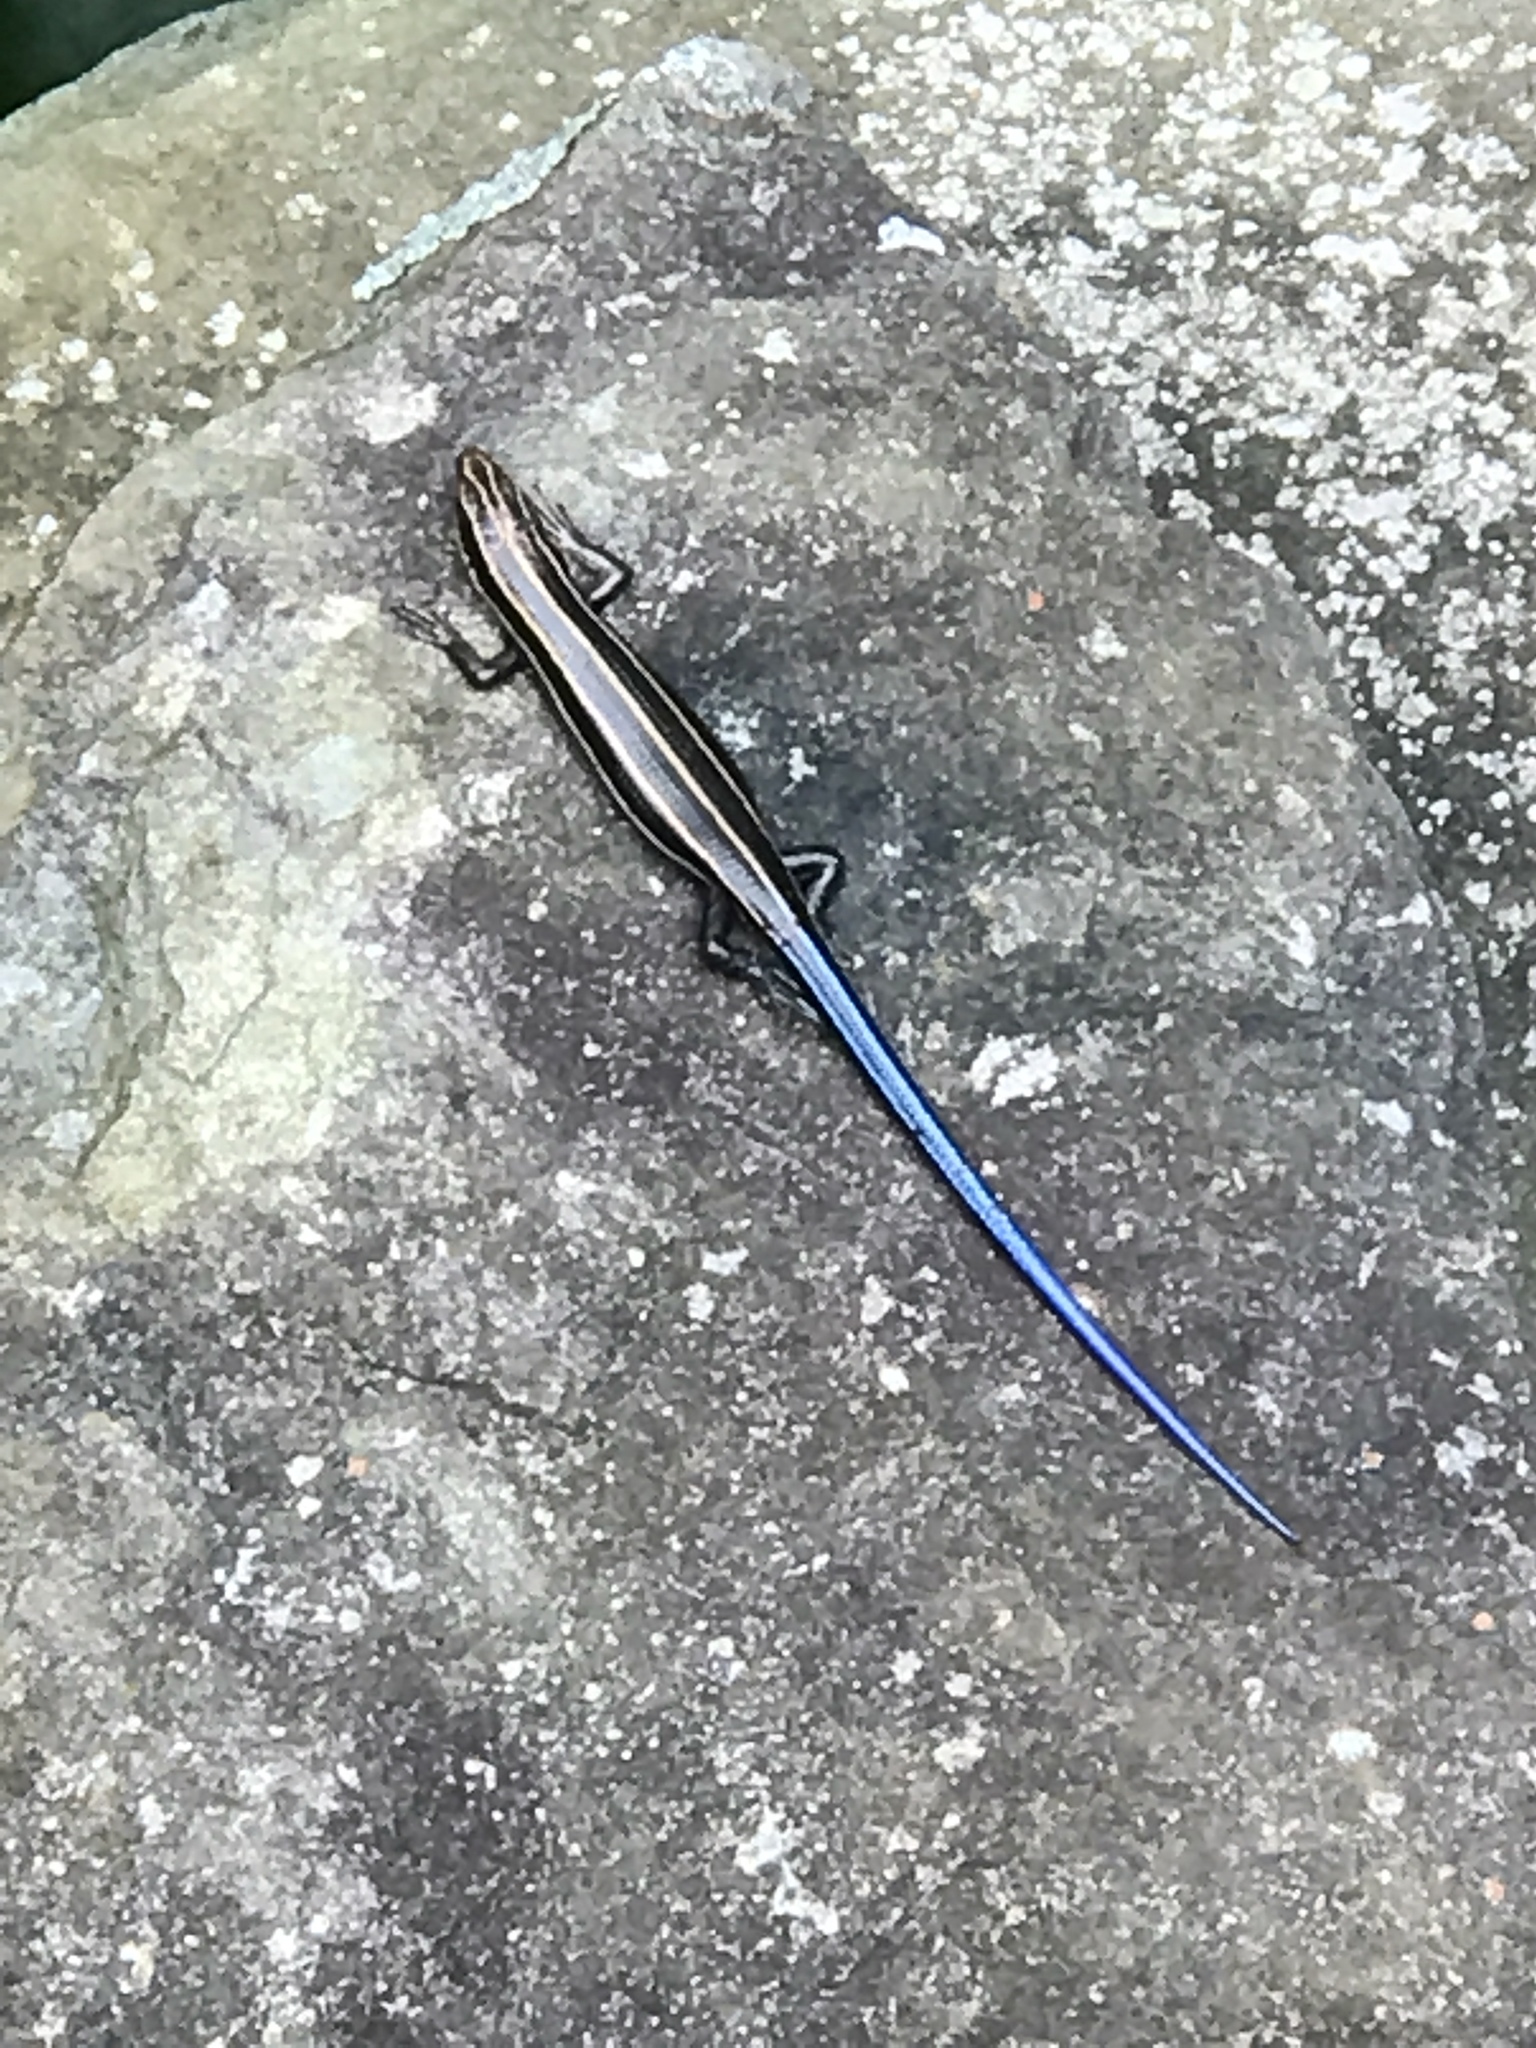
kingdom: Animalia
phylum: Chordata
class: Squamata
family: Scincidae
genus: Plestiodon
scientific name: Plestiodon fasciatus
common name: Five-lined skink
